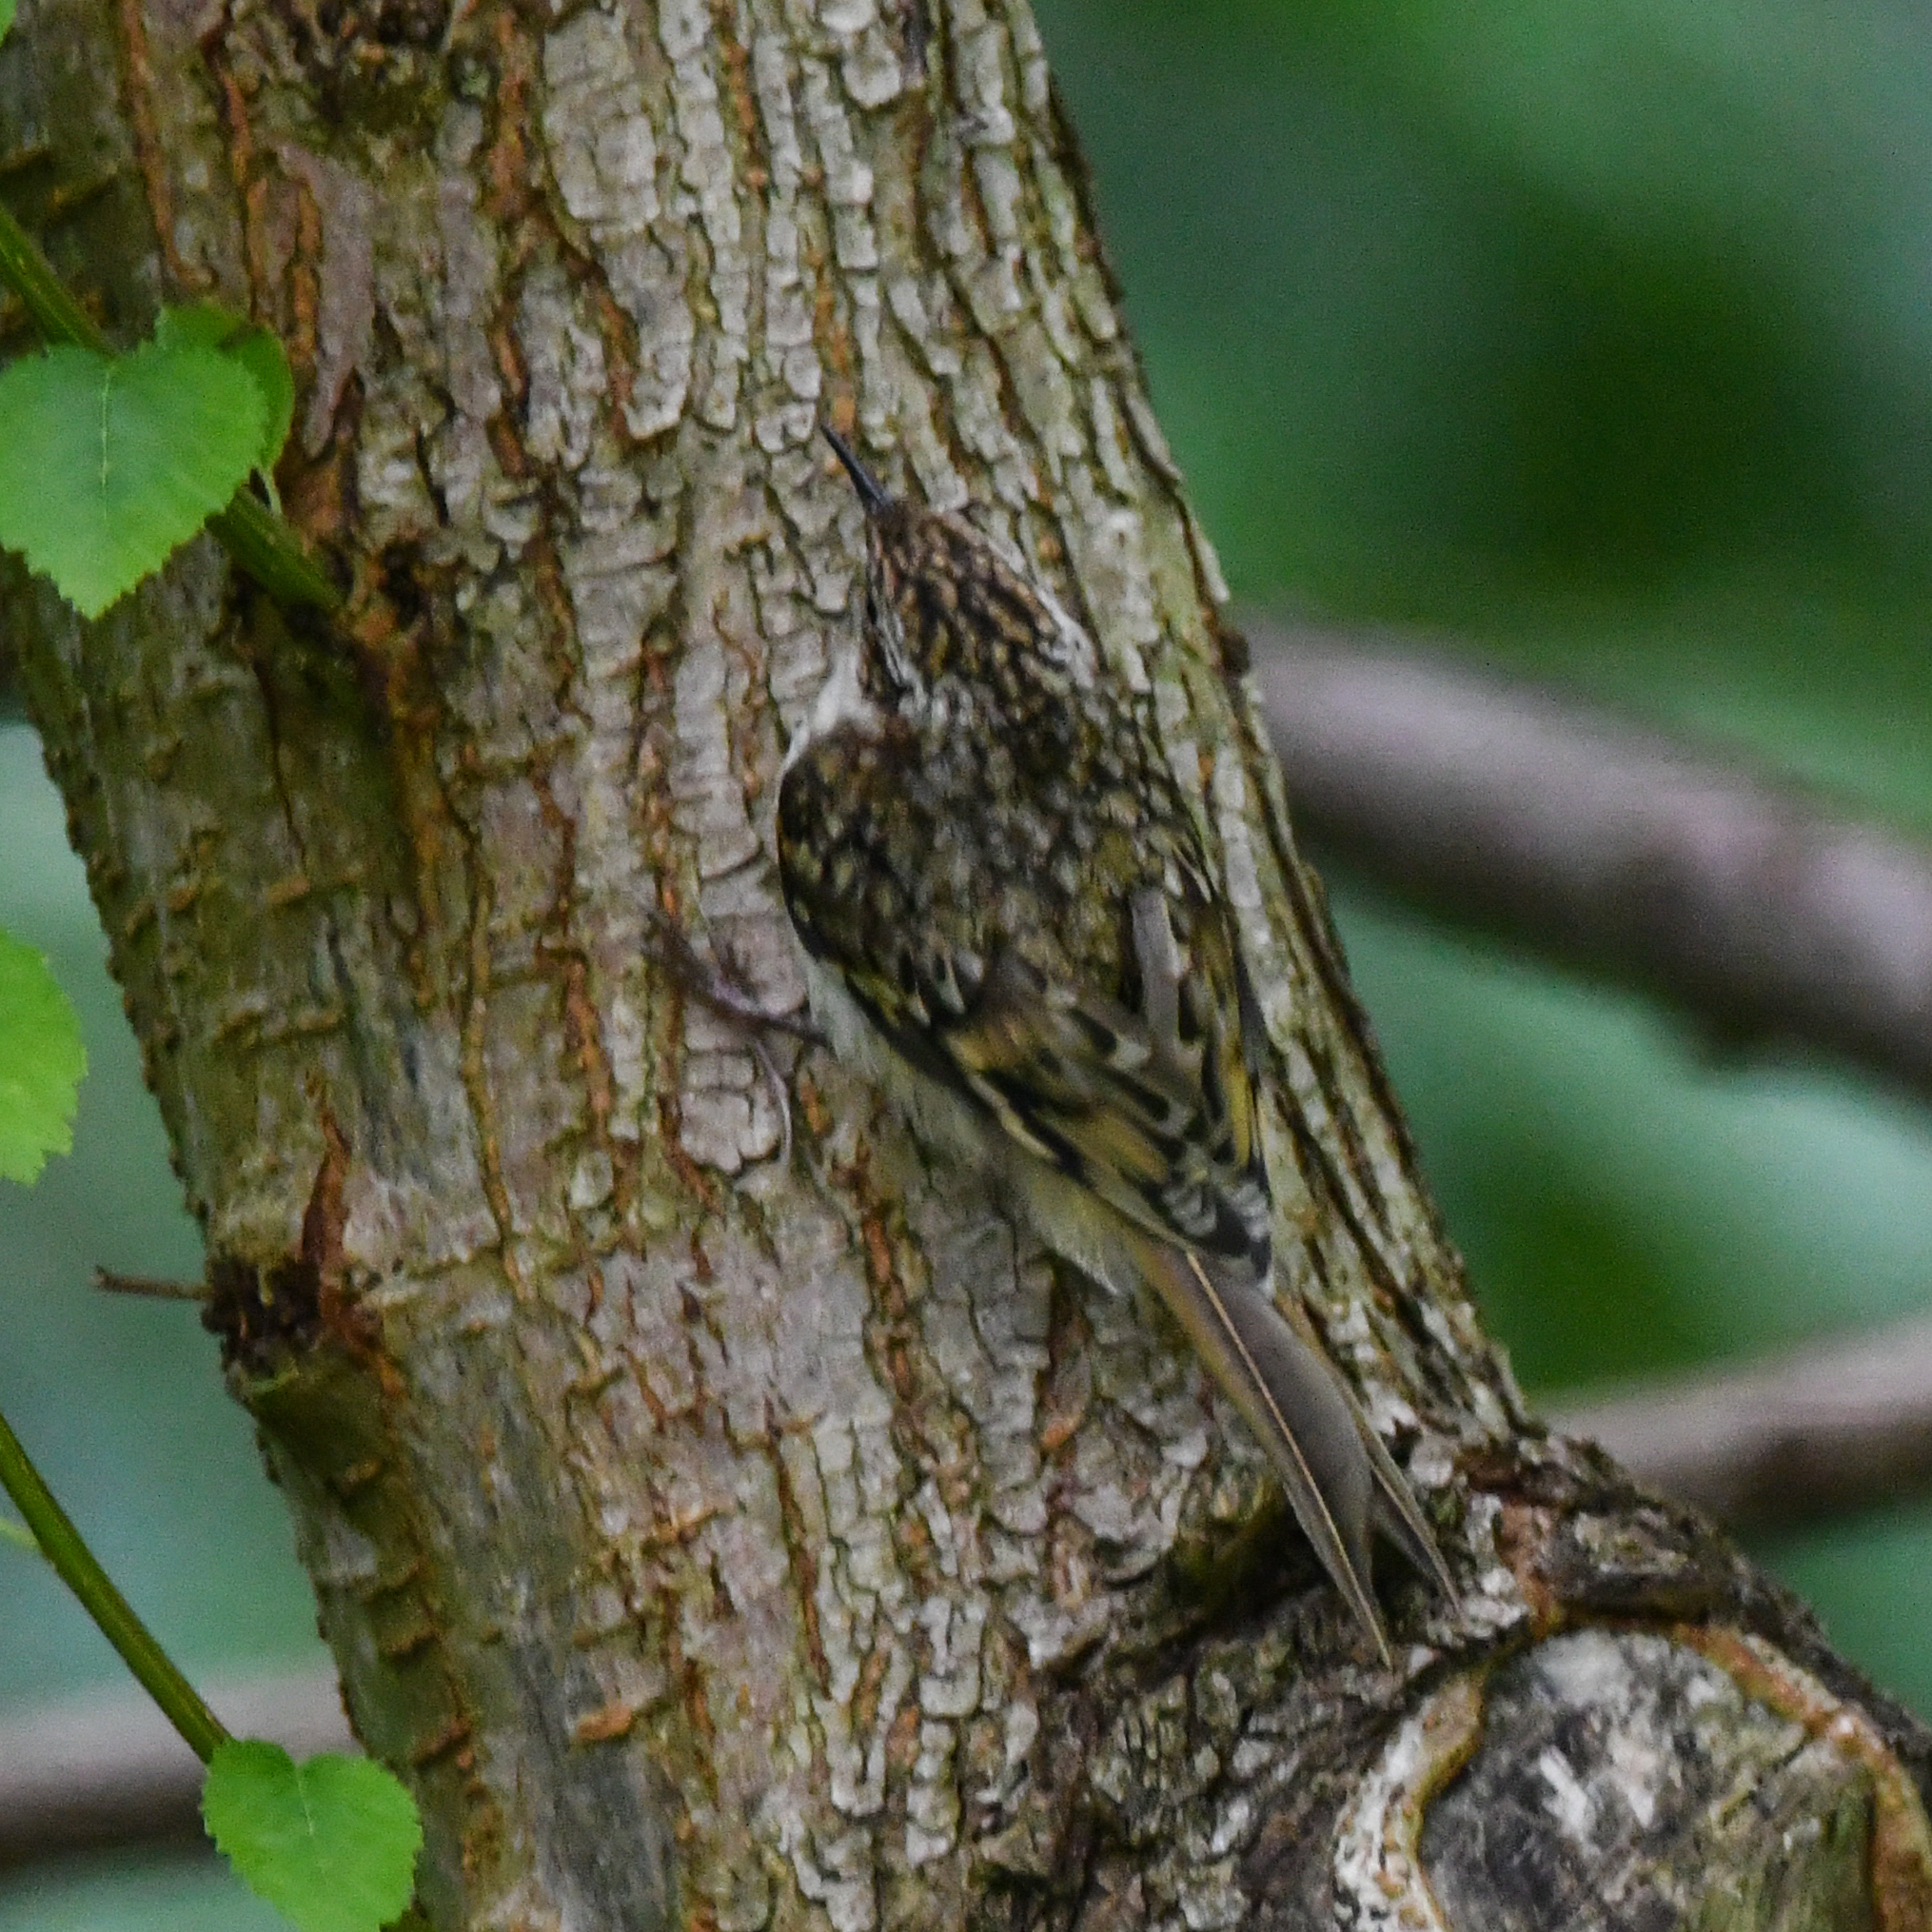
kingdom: Animalia
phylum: Chordata
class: Aves
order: Passeriformes
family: Certhiidae
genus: Certhia
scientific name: Certhia familiaris
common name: Eurasian treecreeper
